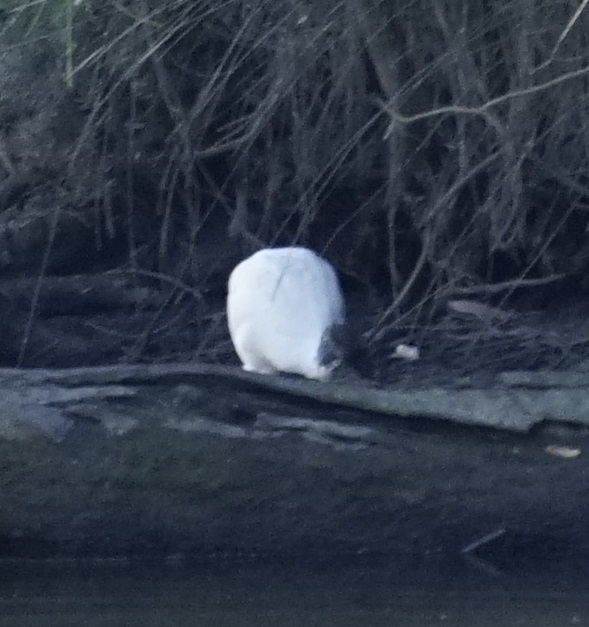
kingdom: Animalia
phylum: Chordata
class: Aves
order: Pelecaniformes
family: Threskiornithidae
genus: Threskiornis
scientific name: Threskiornis molucca
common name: Australian white ibis
